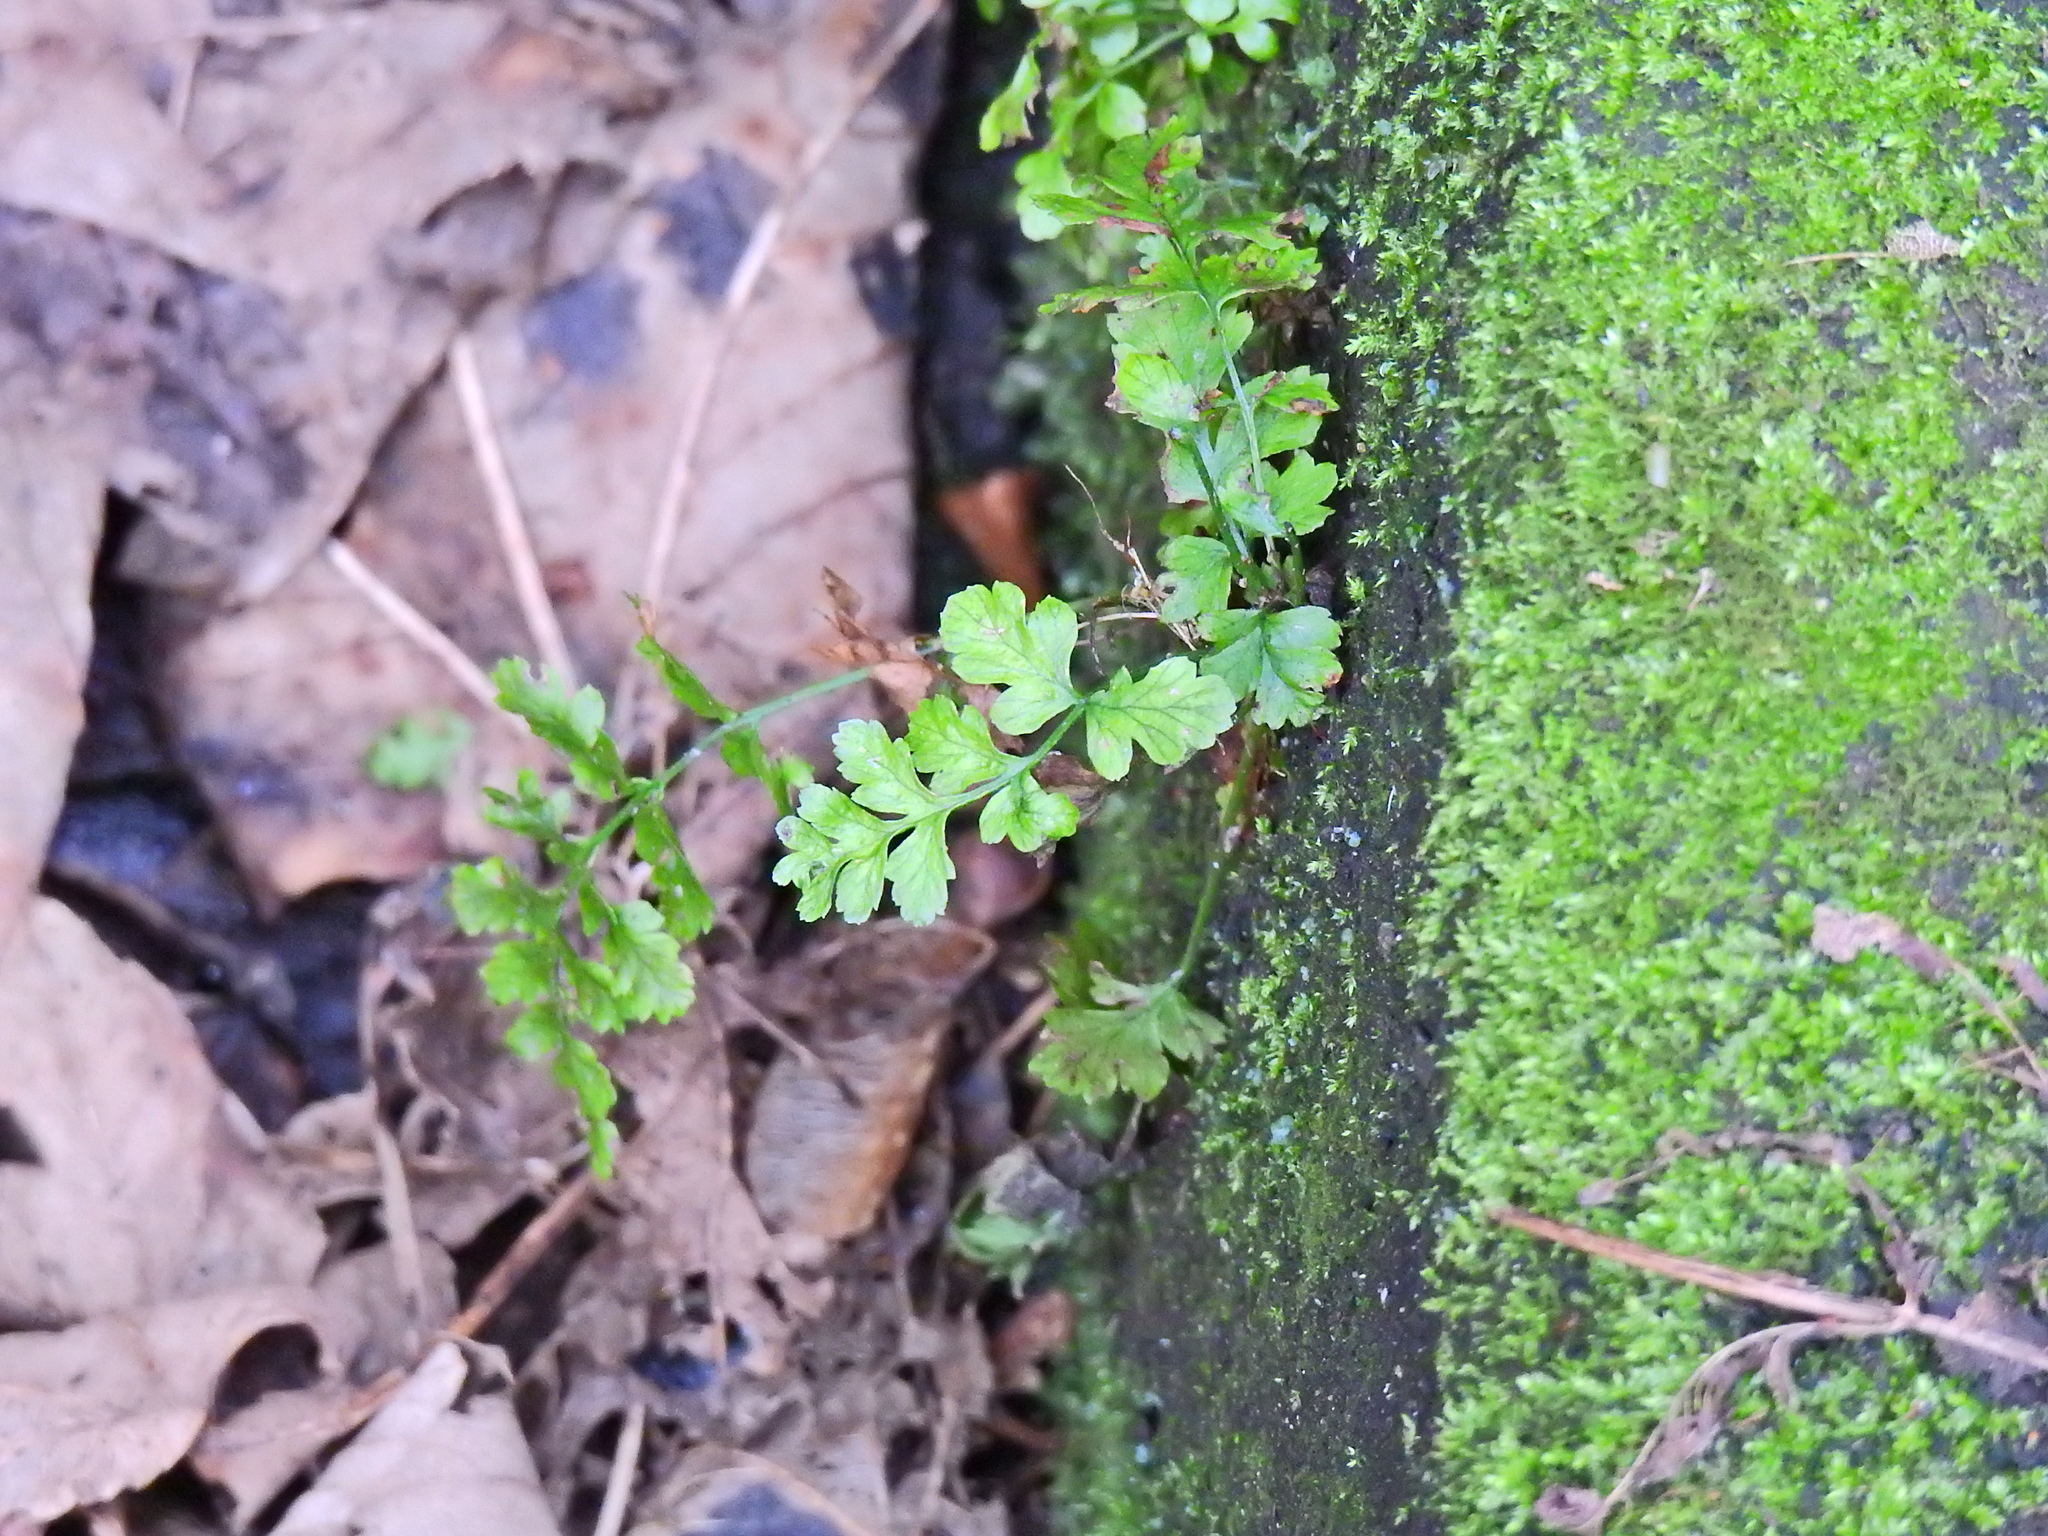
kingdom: Plantae
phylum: Tracheophyta
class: Polypodiopsida
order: Polypodiales
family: Aspleniaceae
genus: Asplenium
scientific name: Asplenium adiantum-nigrum
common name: Black spleenwort
